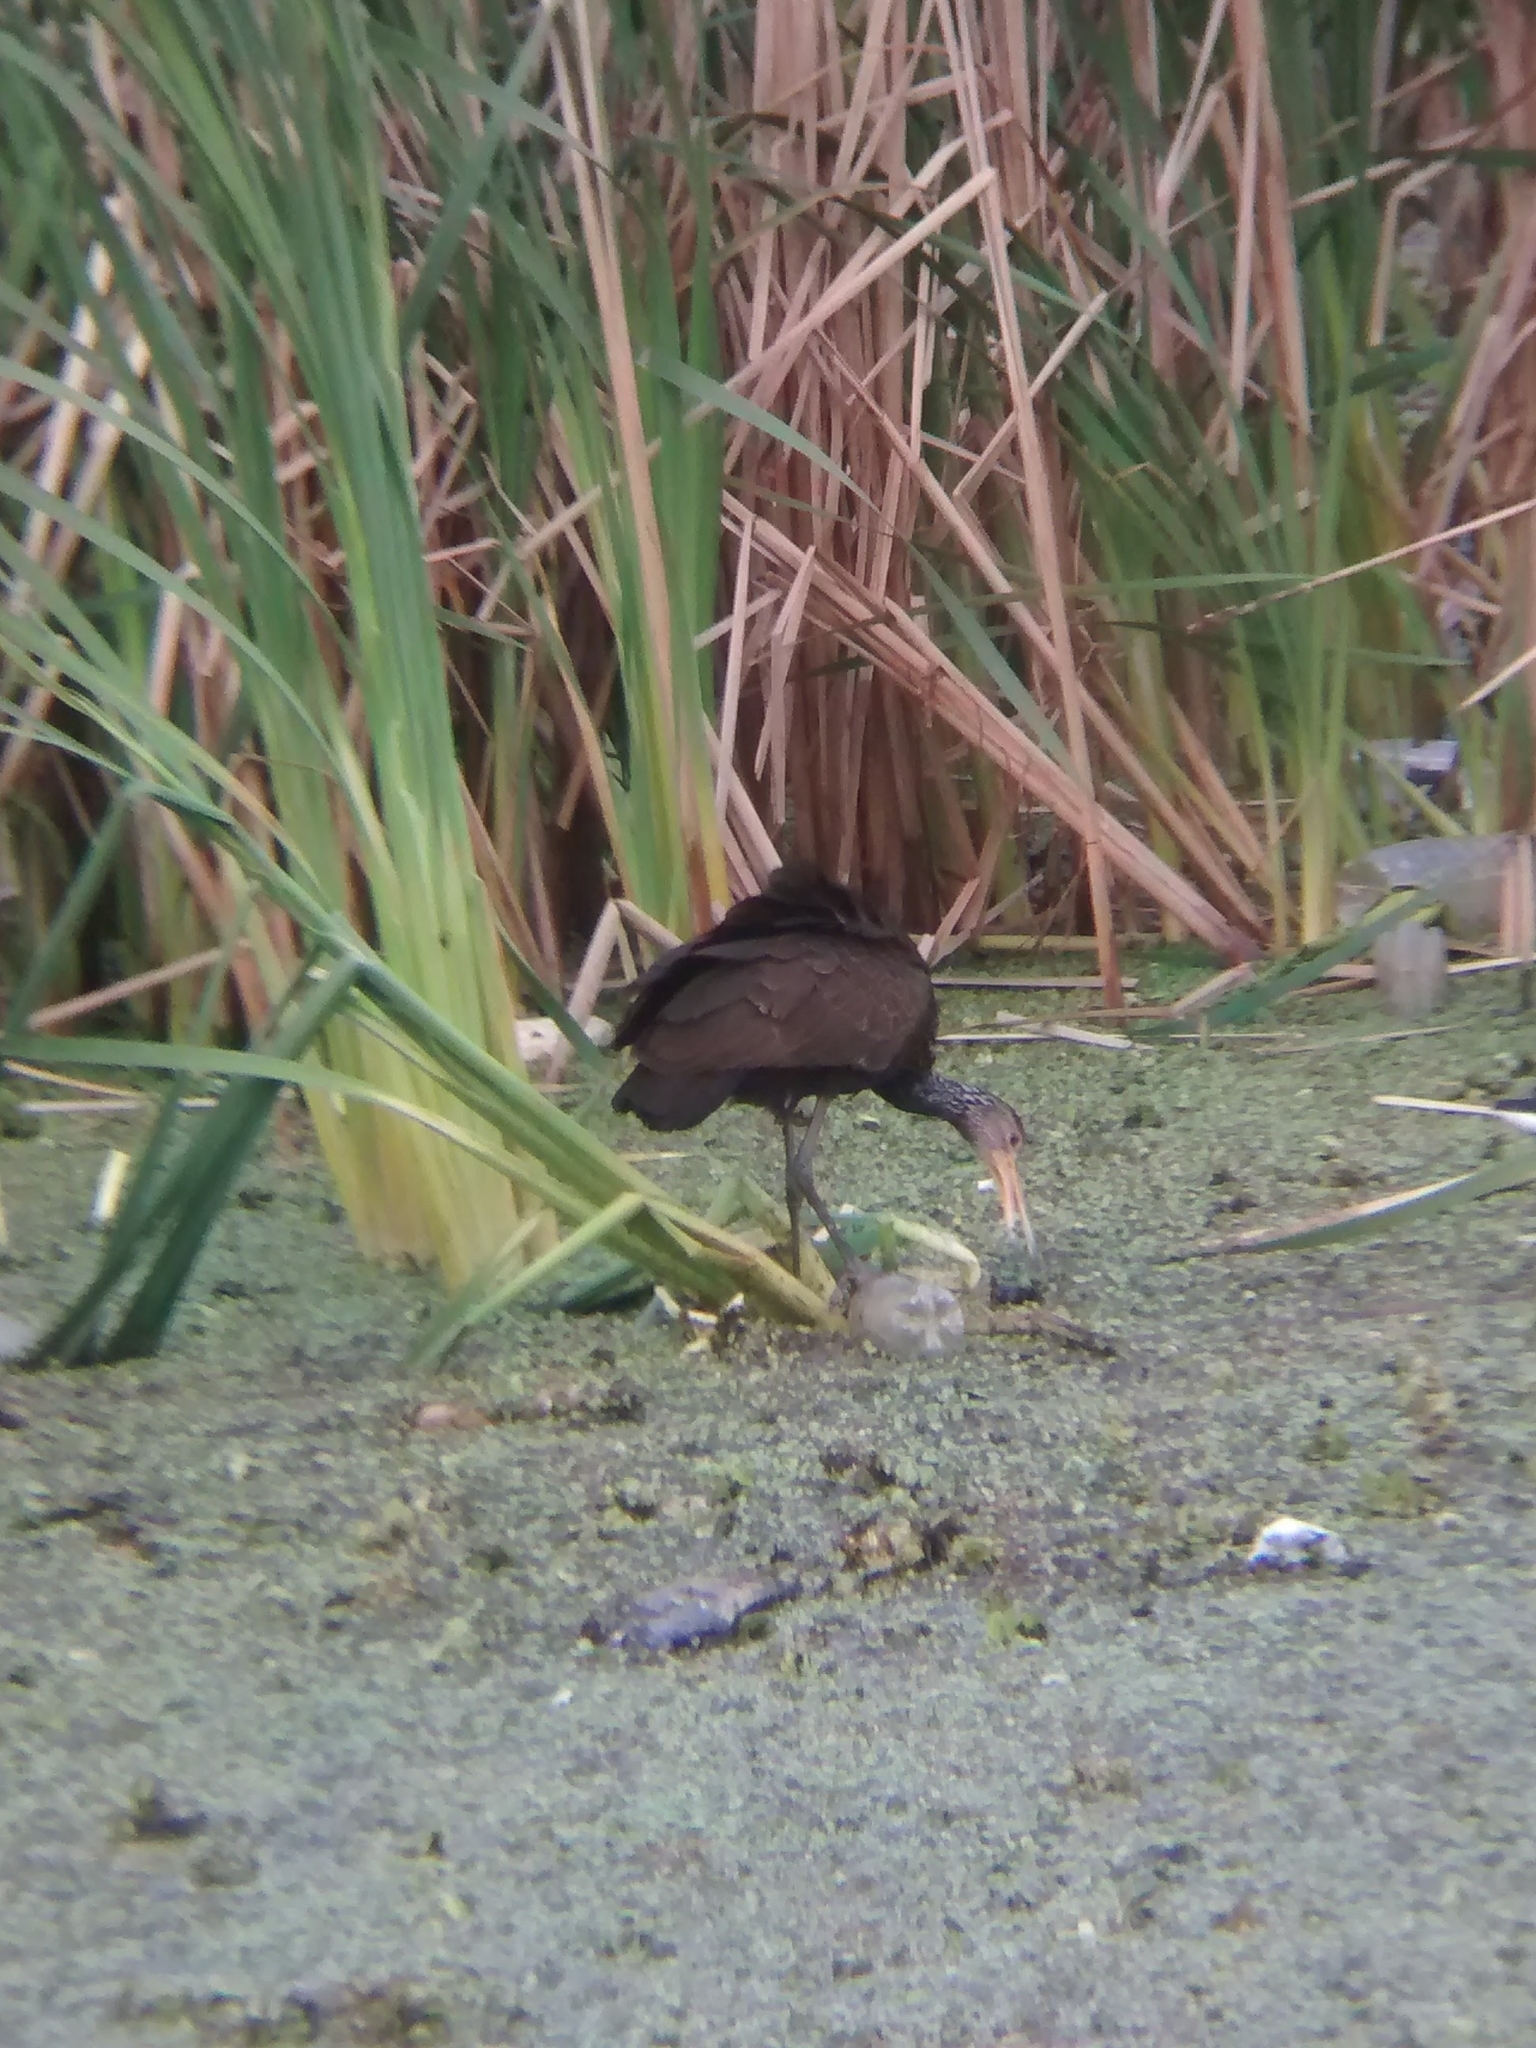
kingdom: Animalia
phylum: Chordata
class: Aves
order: Gruiformes
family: Aramidae
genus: Aramus
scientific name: Aramus guarauna
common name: Limpkin
